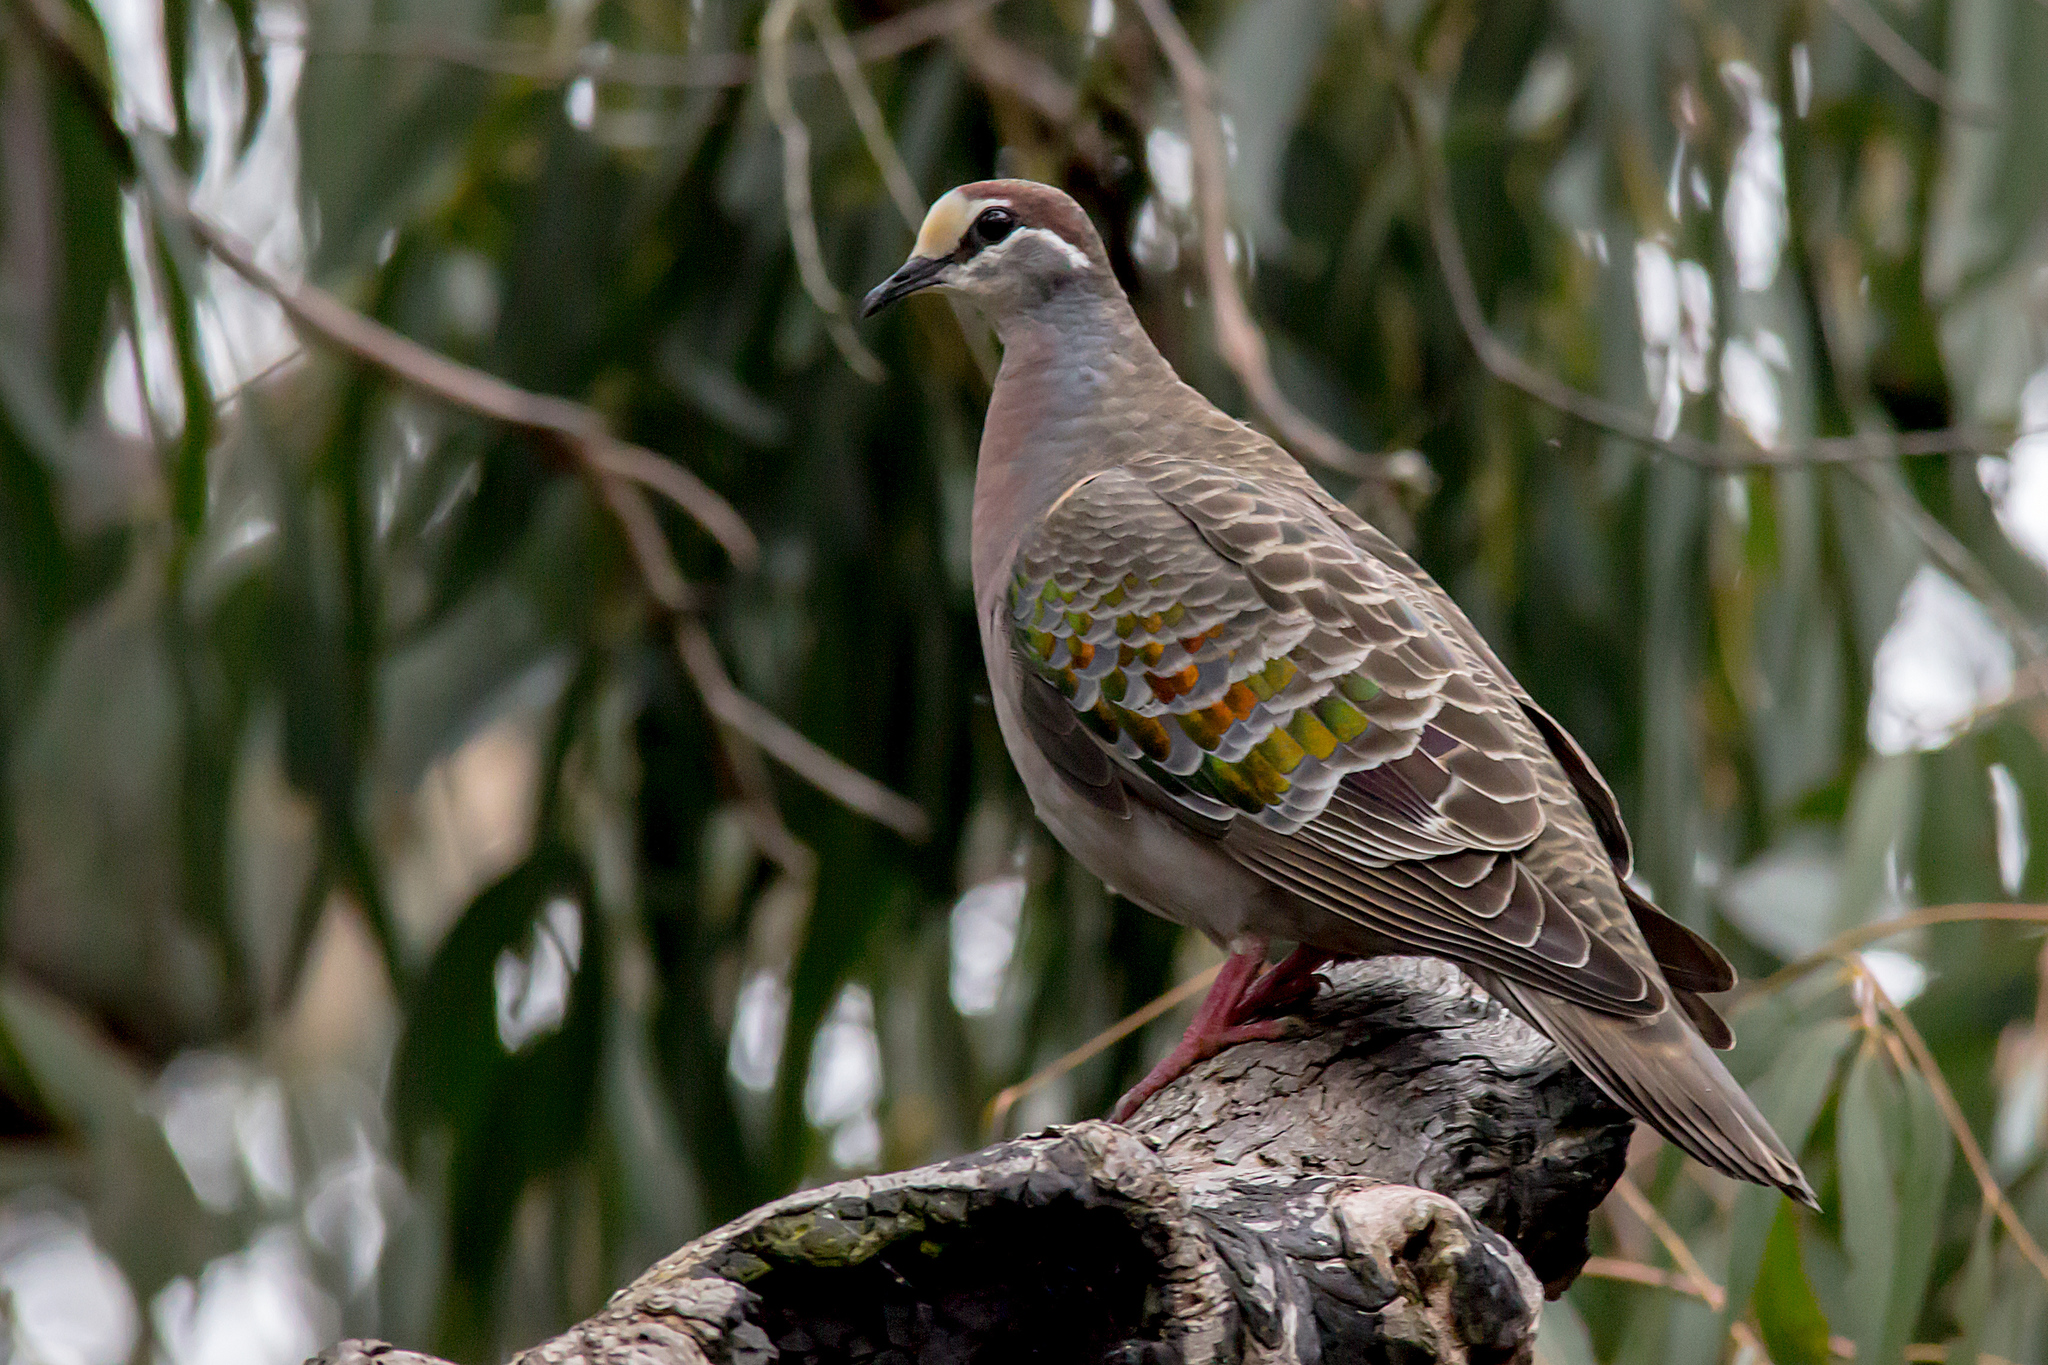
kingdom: Animalia
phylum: Chordata
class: Aves
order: Columbiformes
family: Columbidae
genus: Phaps
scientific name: Phaps chalcoptera
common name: Common bronzewing
